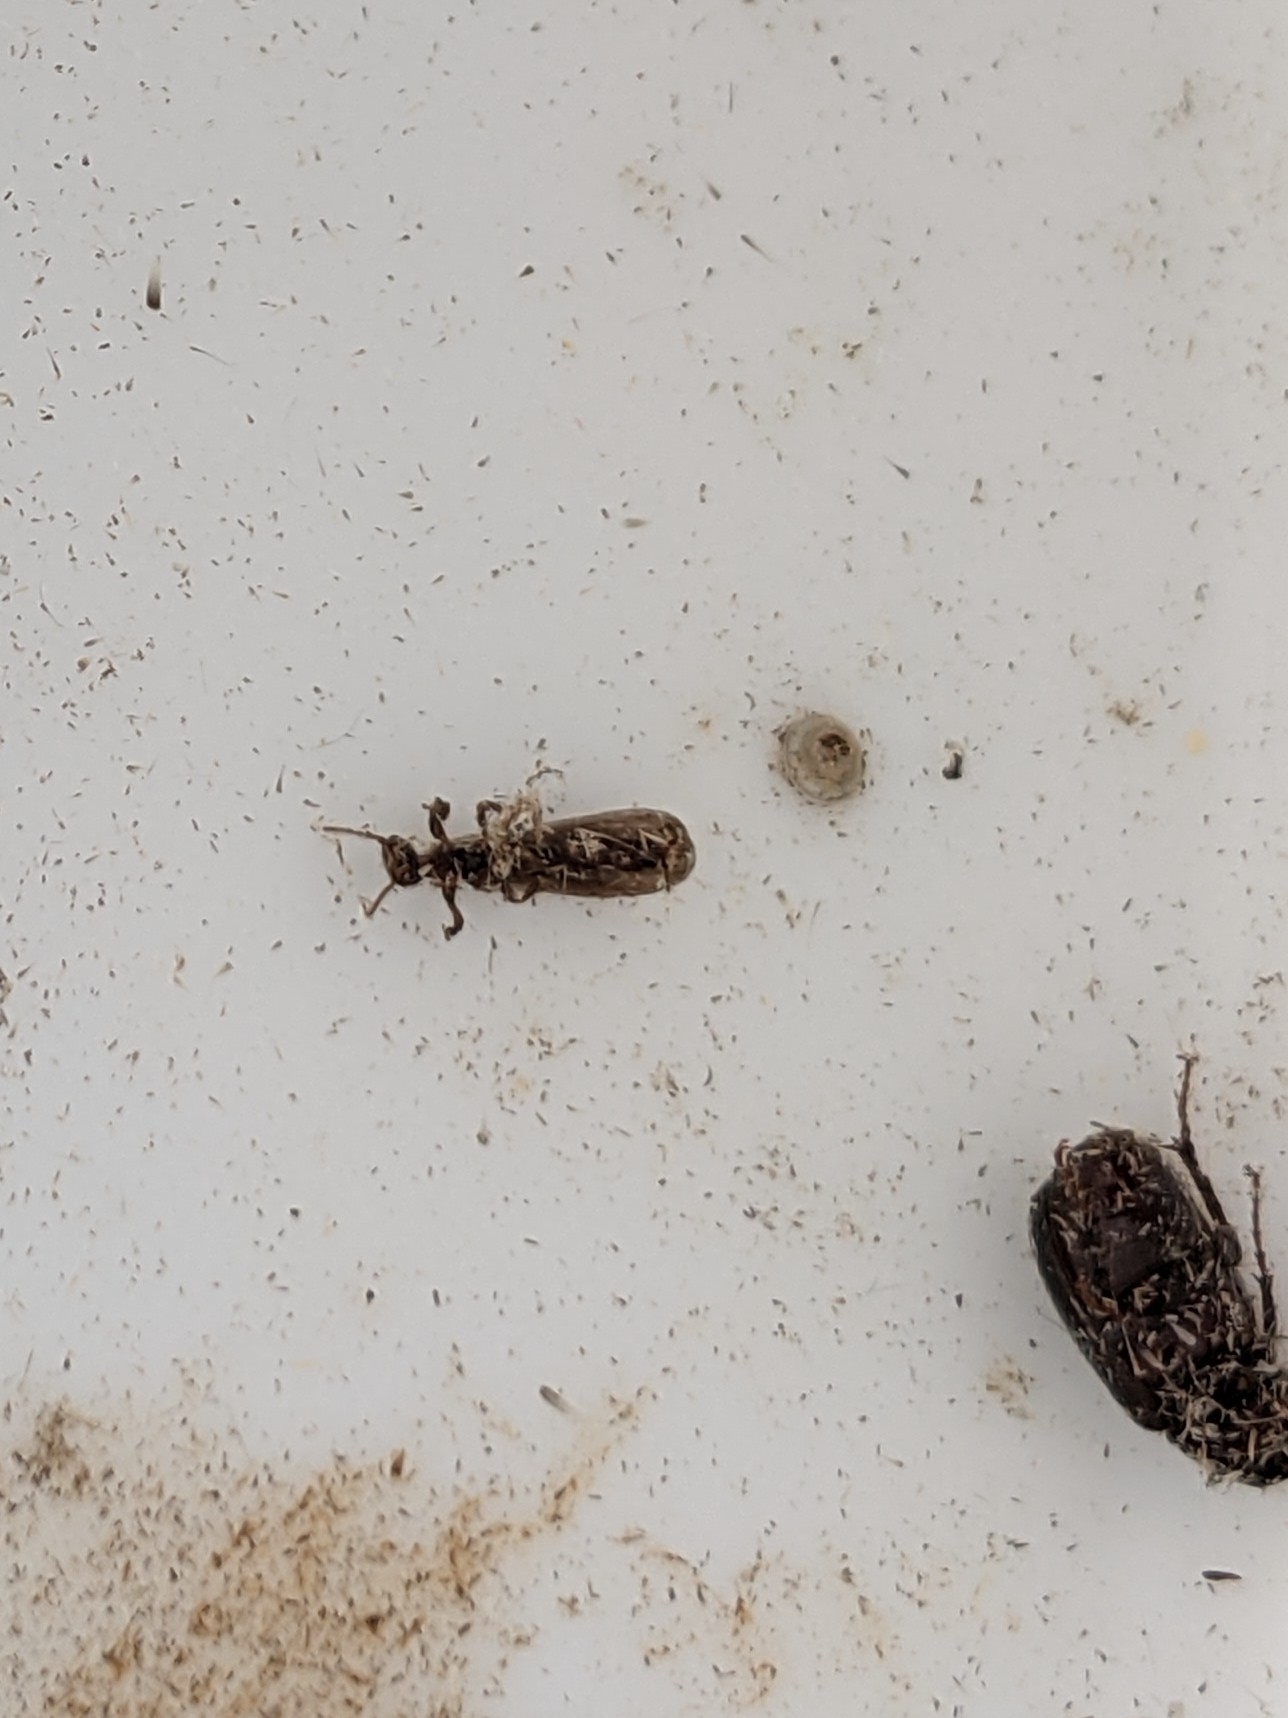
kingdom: Animalia
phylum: Arthropoda
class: Insecta
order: Embioptera
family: Oligotomidae
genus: Oligotoma
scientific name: Oligotoma nigra
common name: Black webspinner
